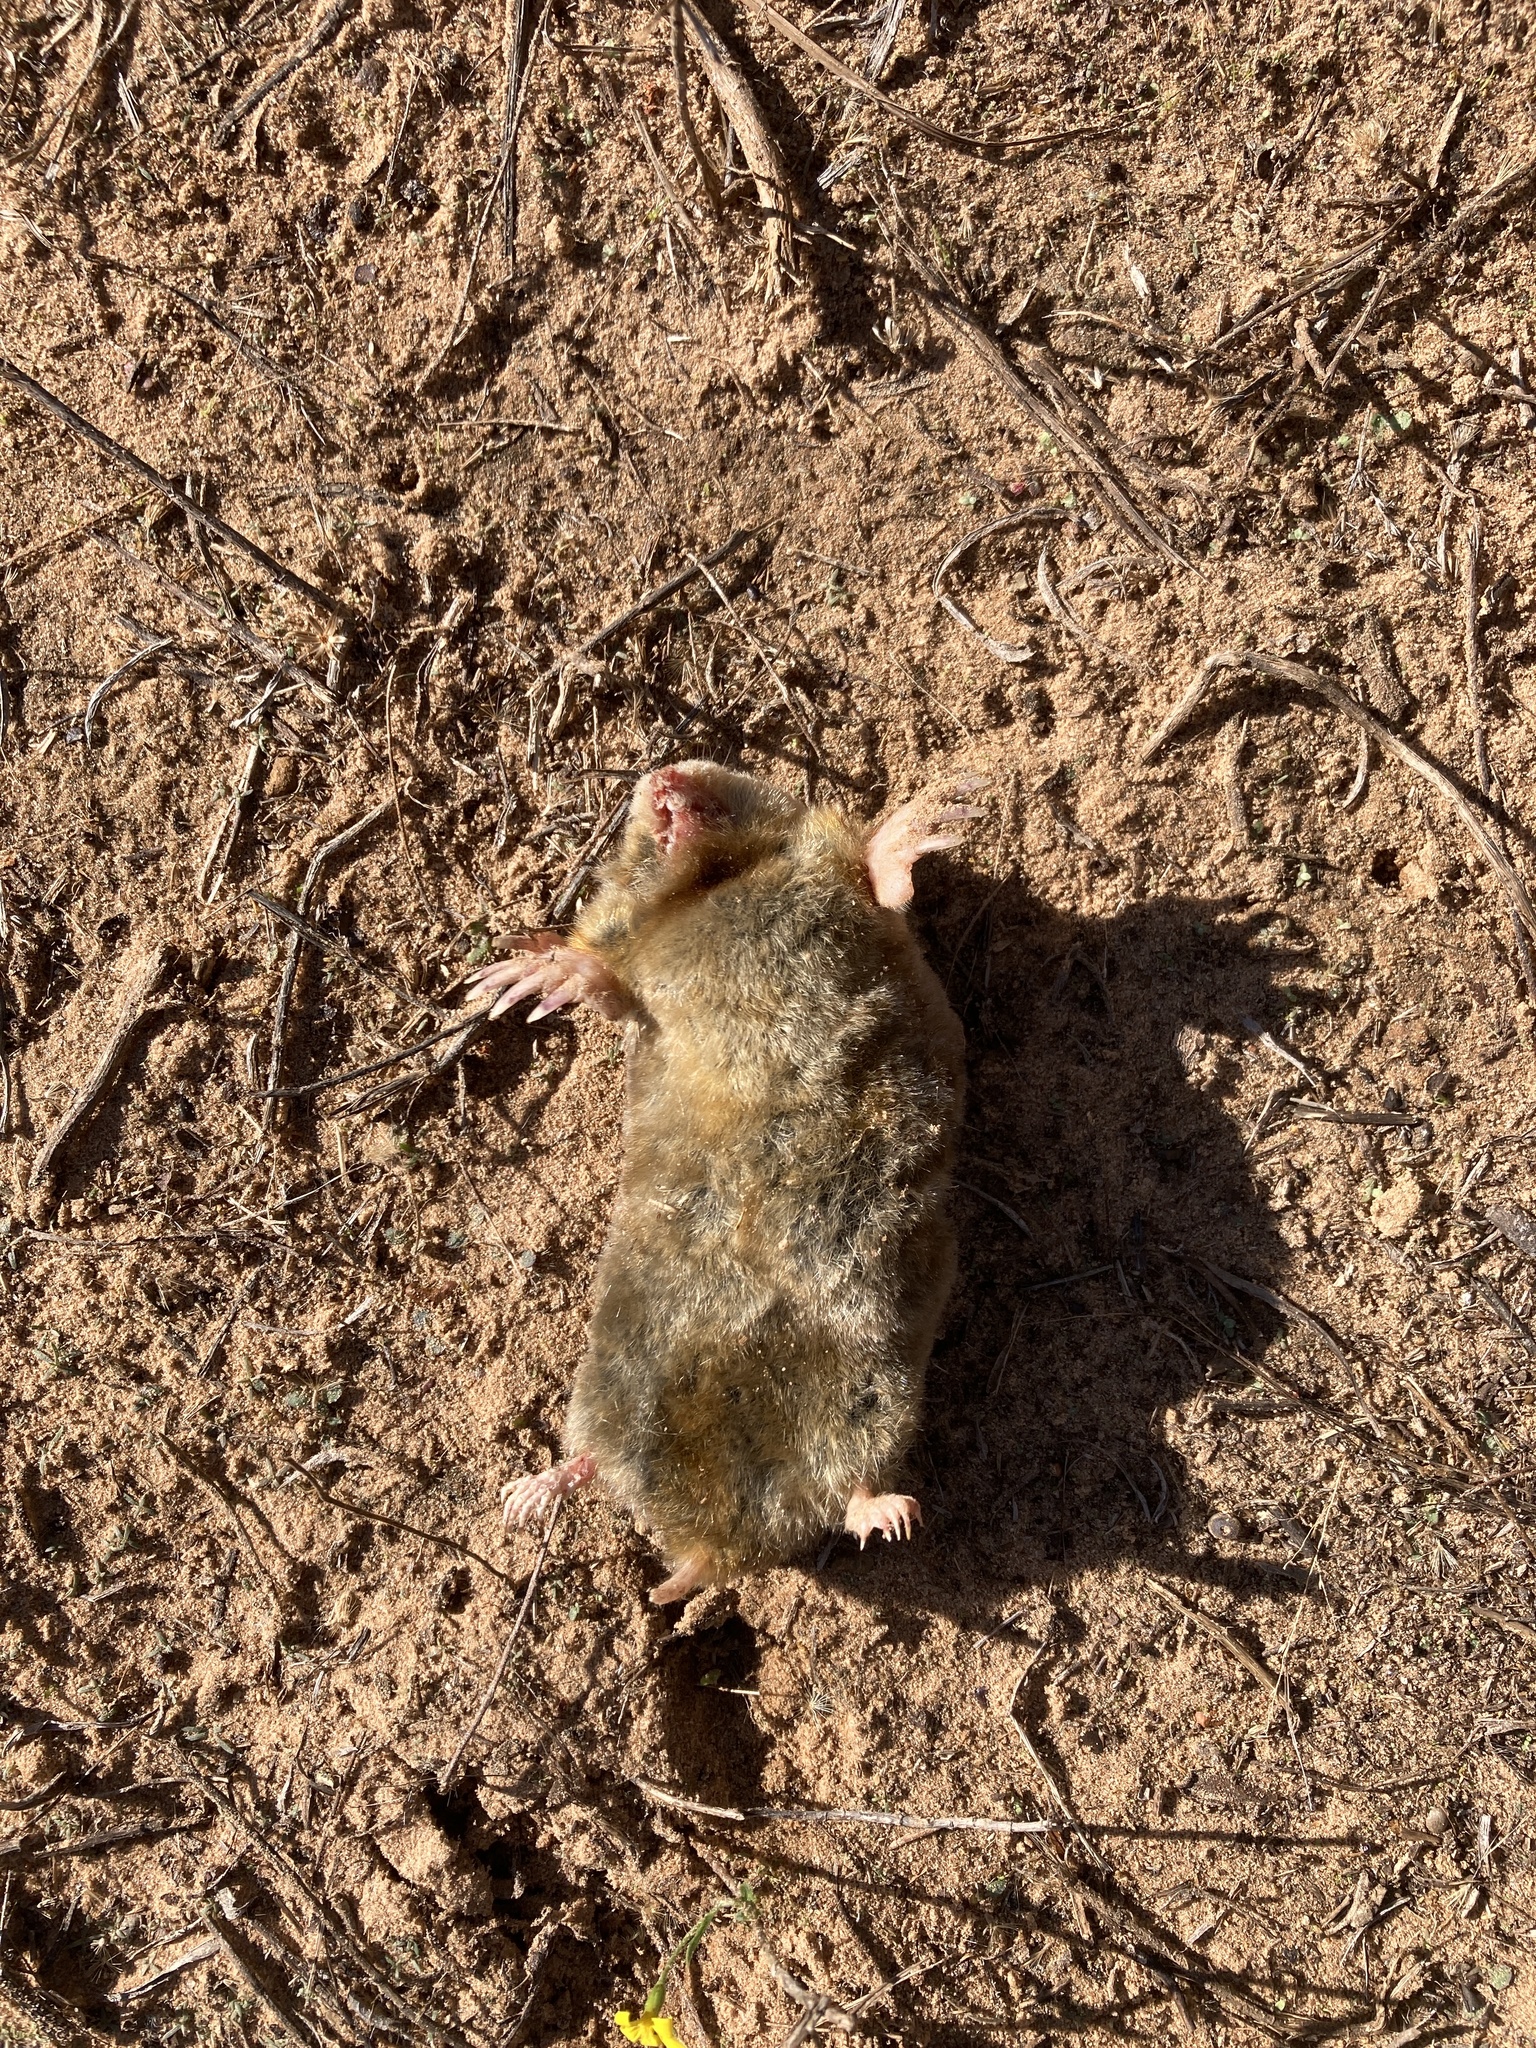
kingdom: Animalia
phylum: Chordata
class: Mammalia
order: Soricomorpha
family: Talpidae
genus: Scalopus
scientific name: Scalopus aquaticus
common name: Eastern mole
